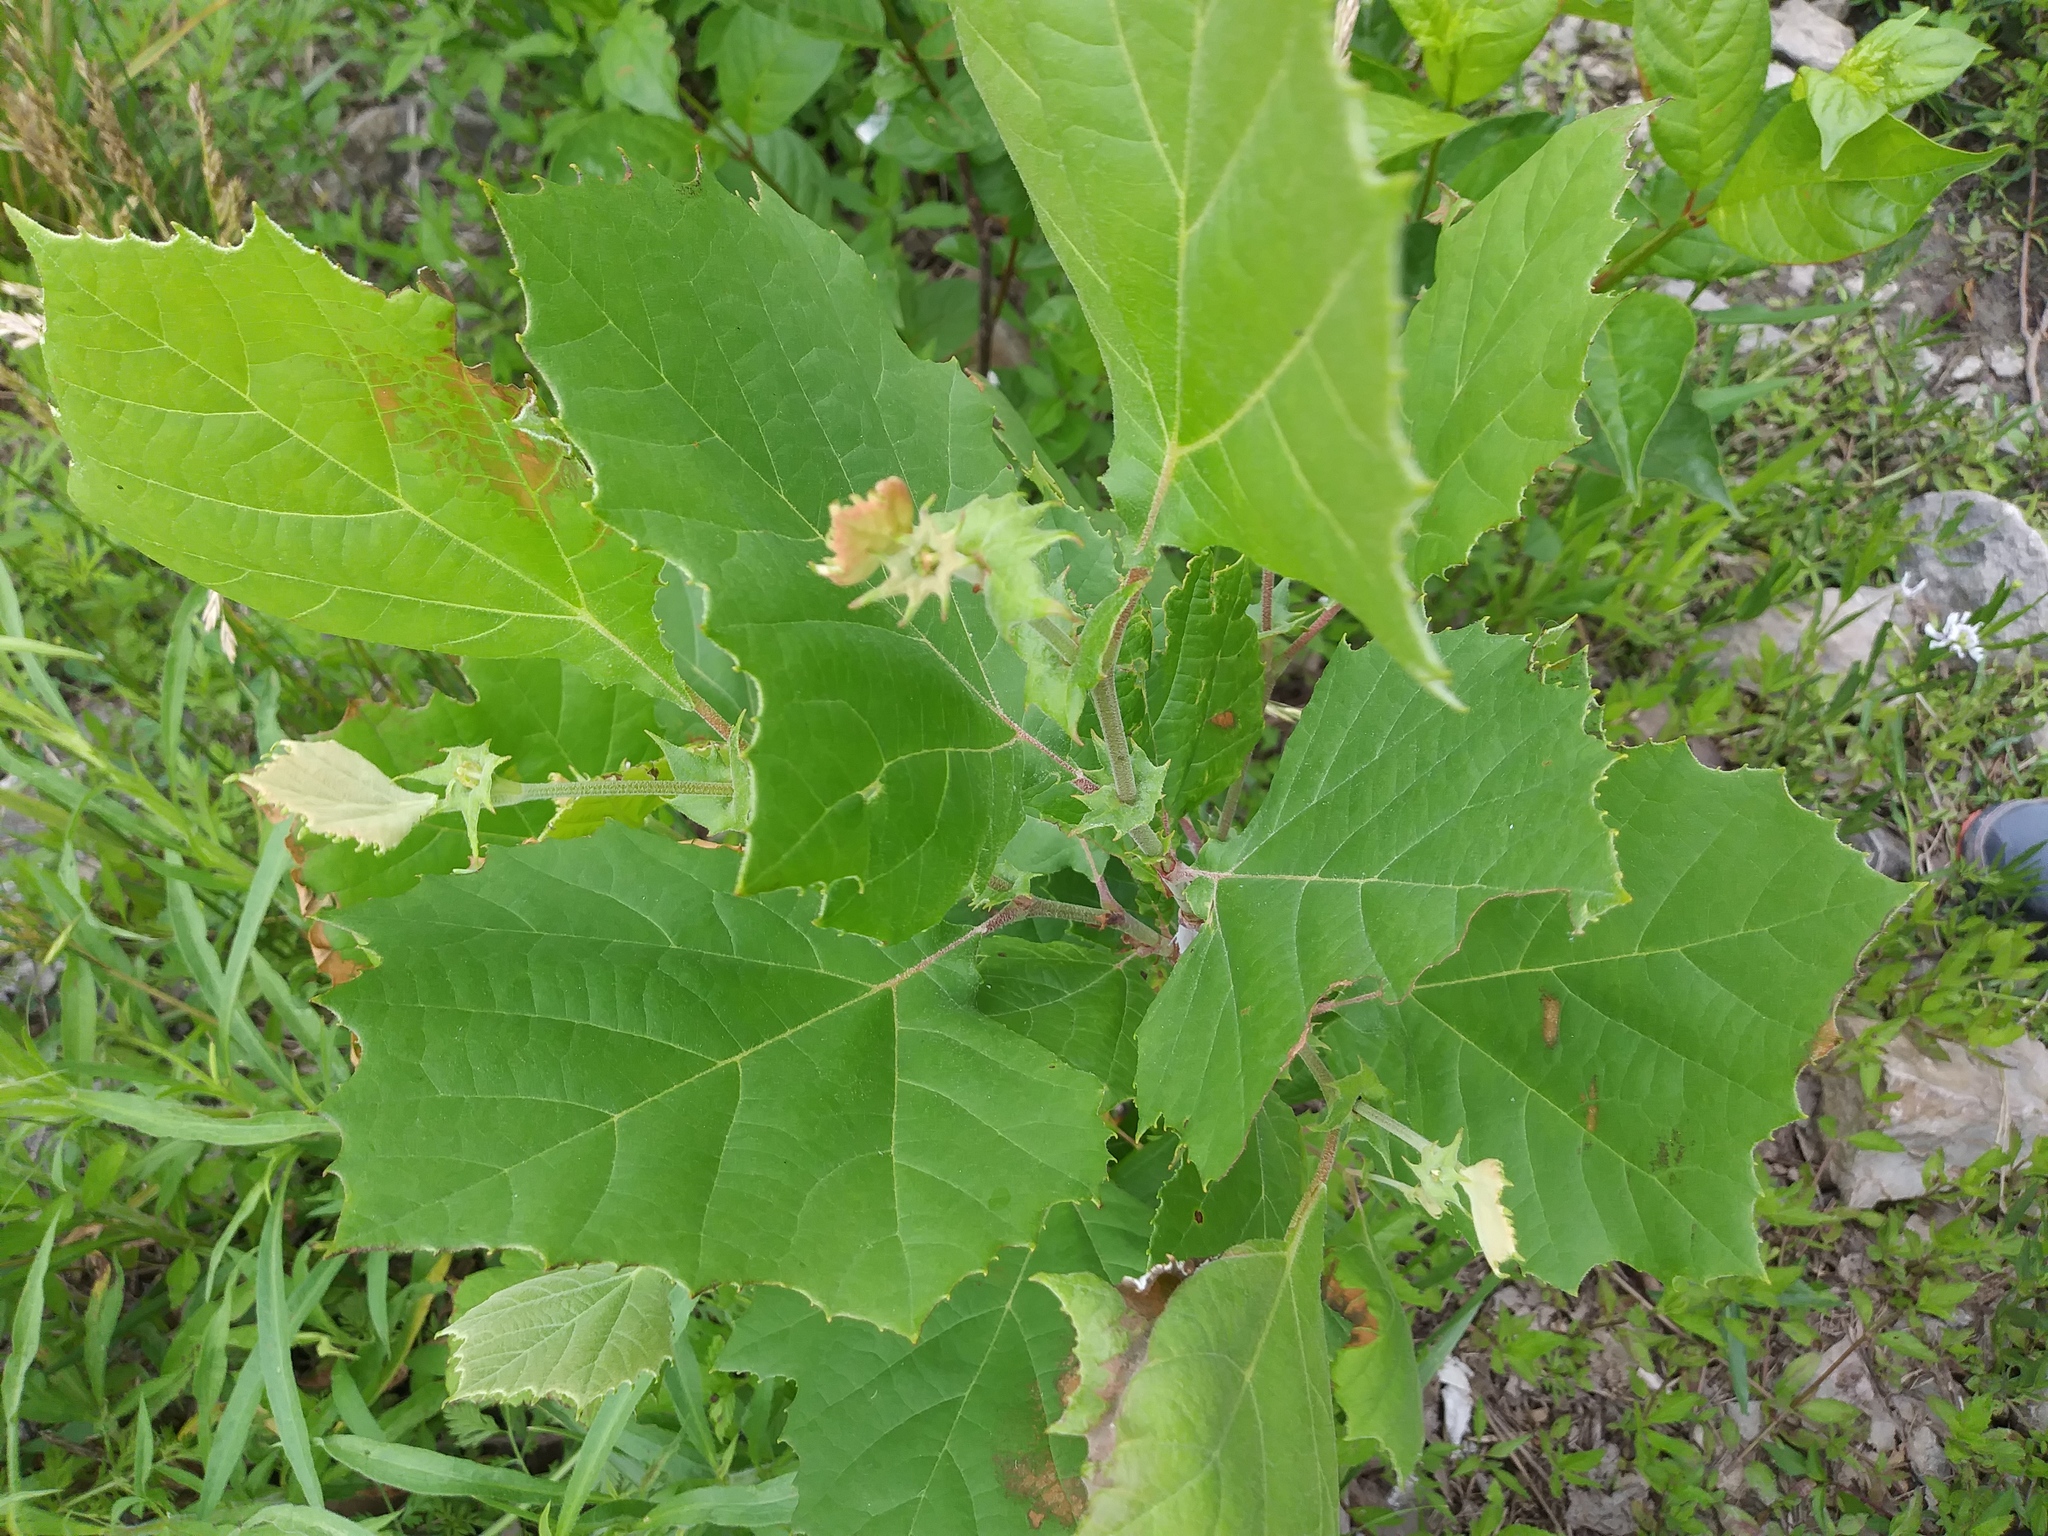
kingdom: Plantae
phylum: Tracheophyta
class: Magnoliopsida
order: Proteales
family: Platanaceae
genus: Platanus
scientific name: Platanus occidentalis
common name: American sycamore
